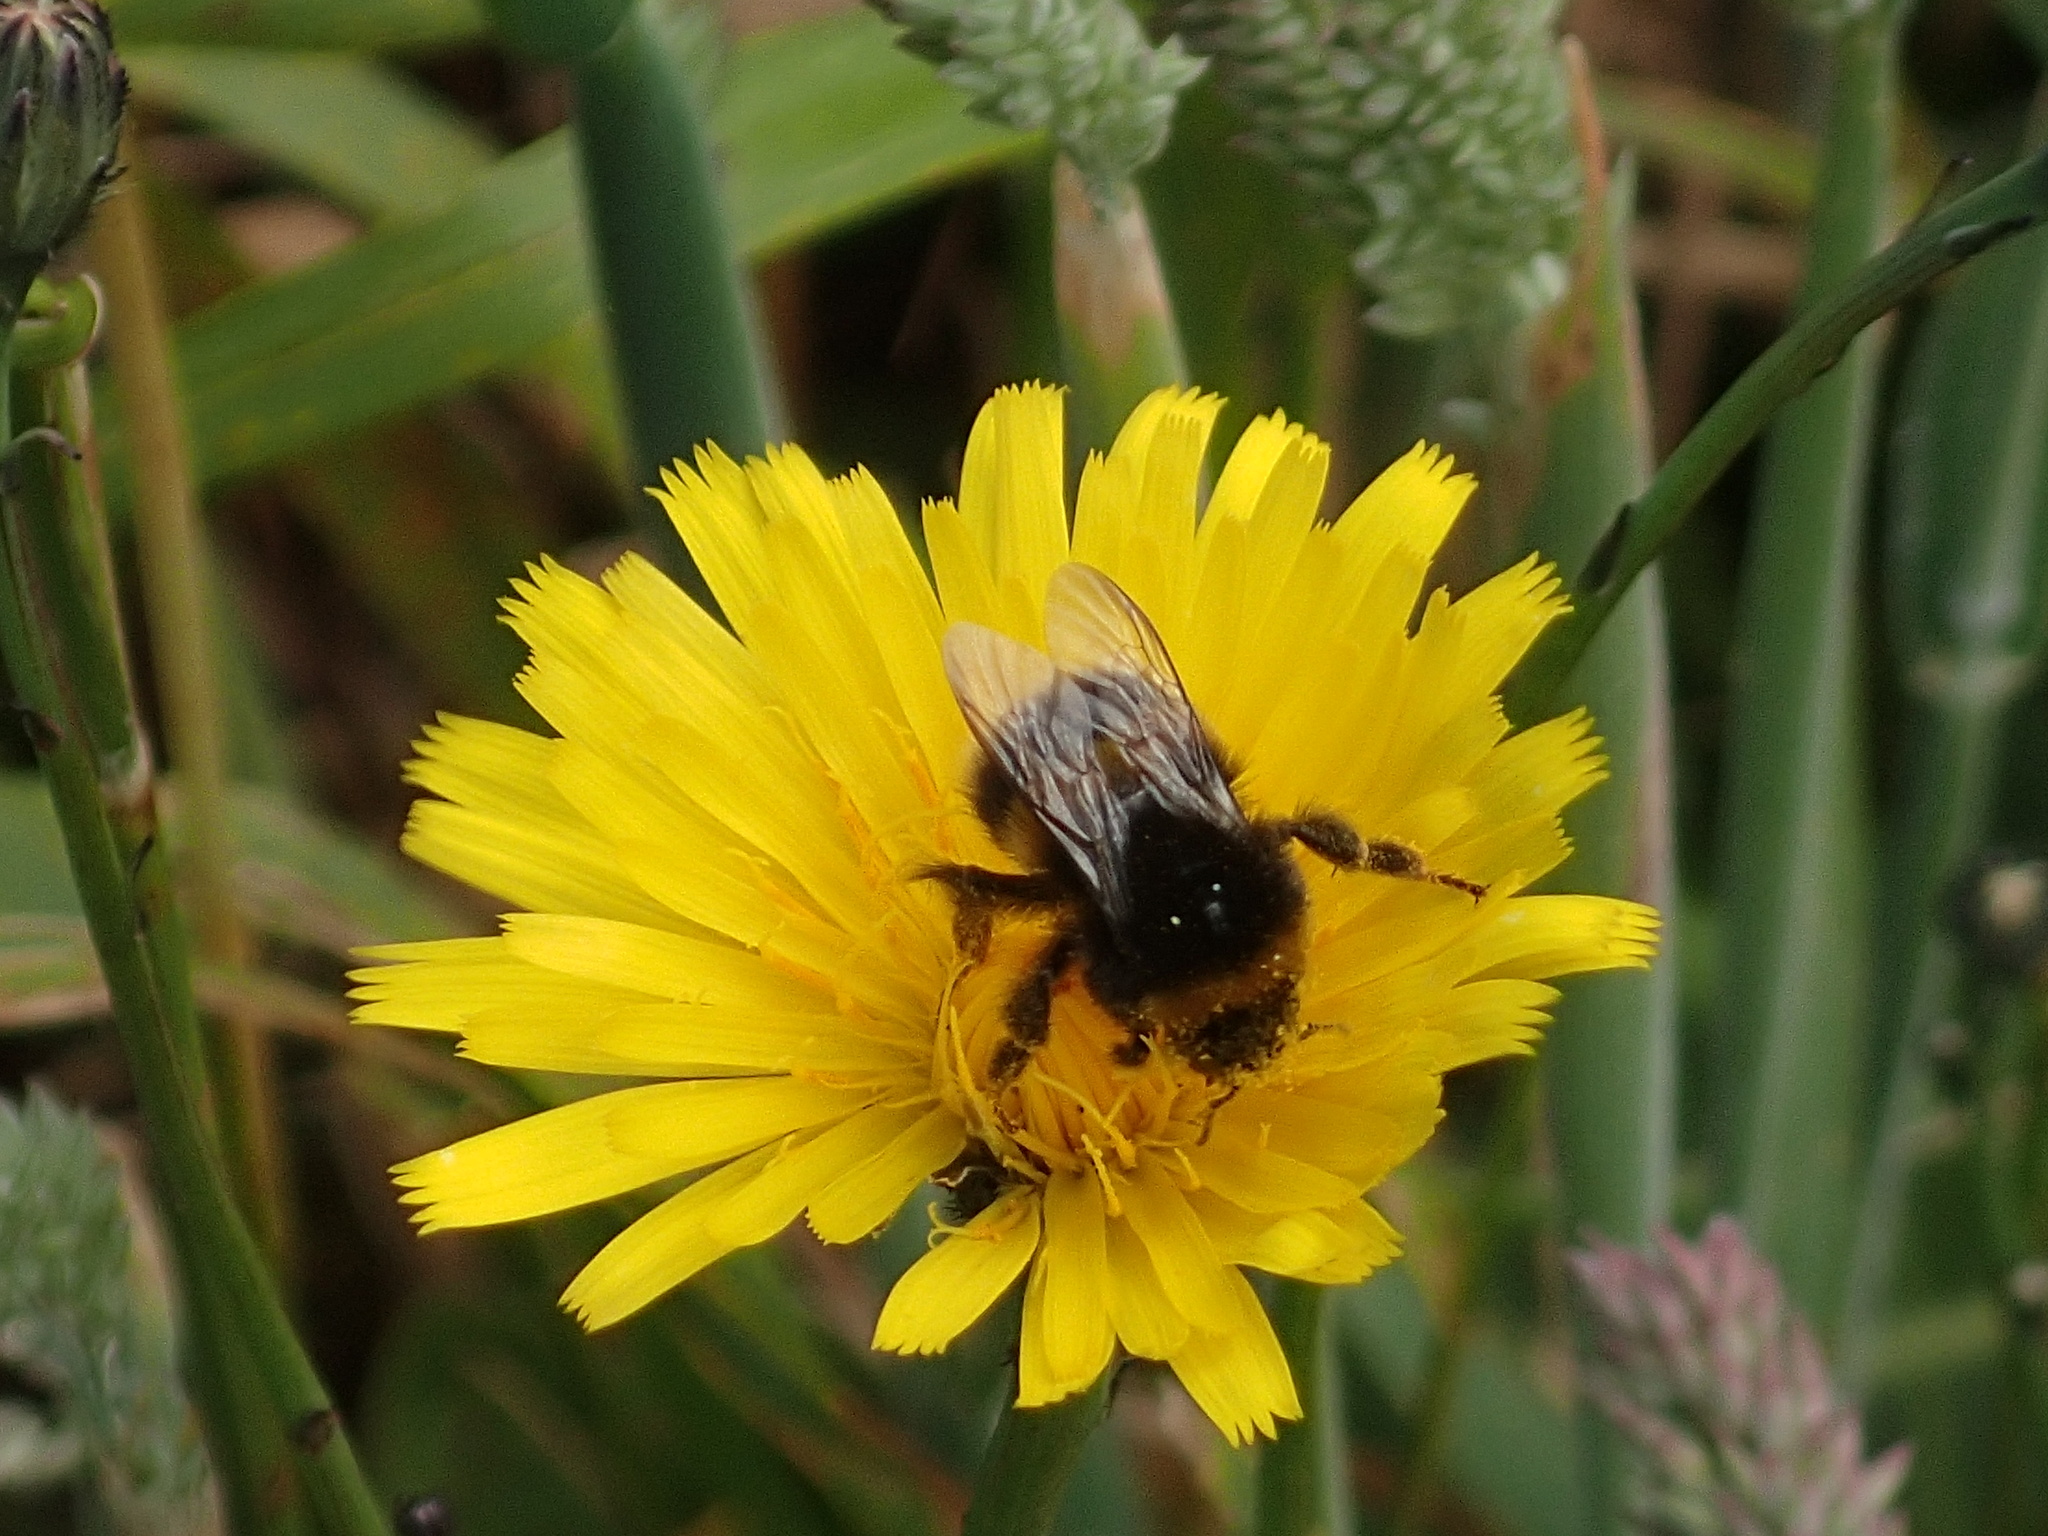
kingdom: Animalia
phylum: Arthropoda
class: Insecta
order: Hymenoptera
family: Apidae
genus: Bombus
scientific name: Bombus terrestris
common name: Buff-tailed bumblebee
